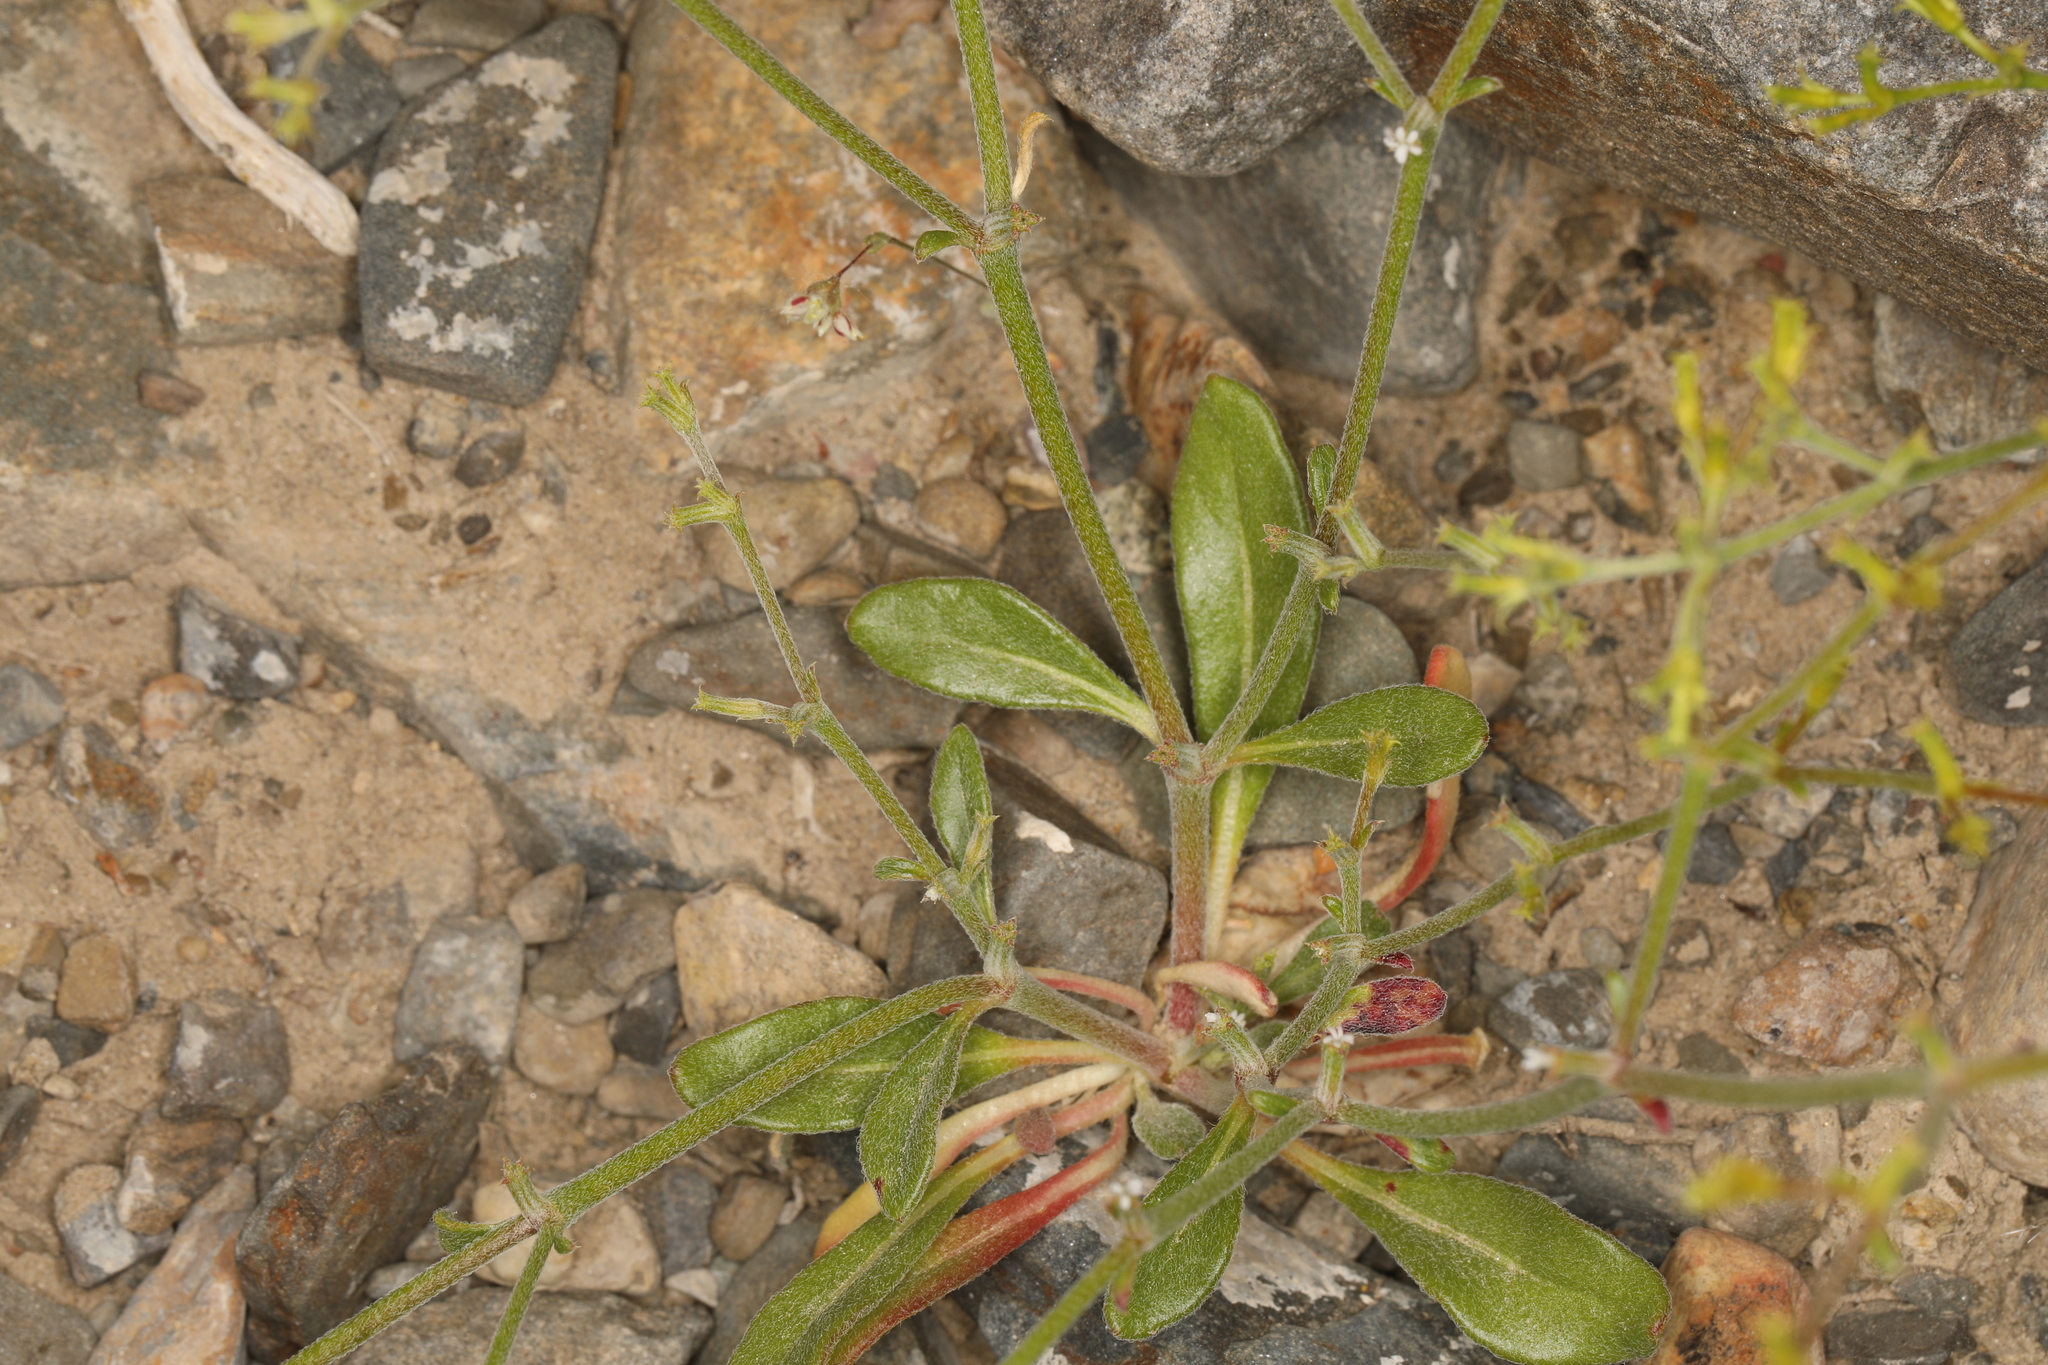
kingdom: Plantae
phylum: Tracheophyta
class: Magnoliopsida
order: Caryophyllales
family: Polygonaceae
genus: Chorizanthe
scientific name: Chorizanthe brevicornu
